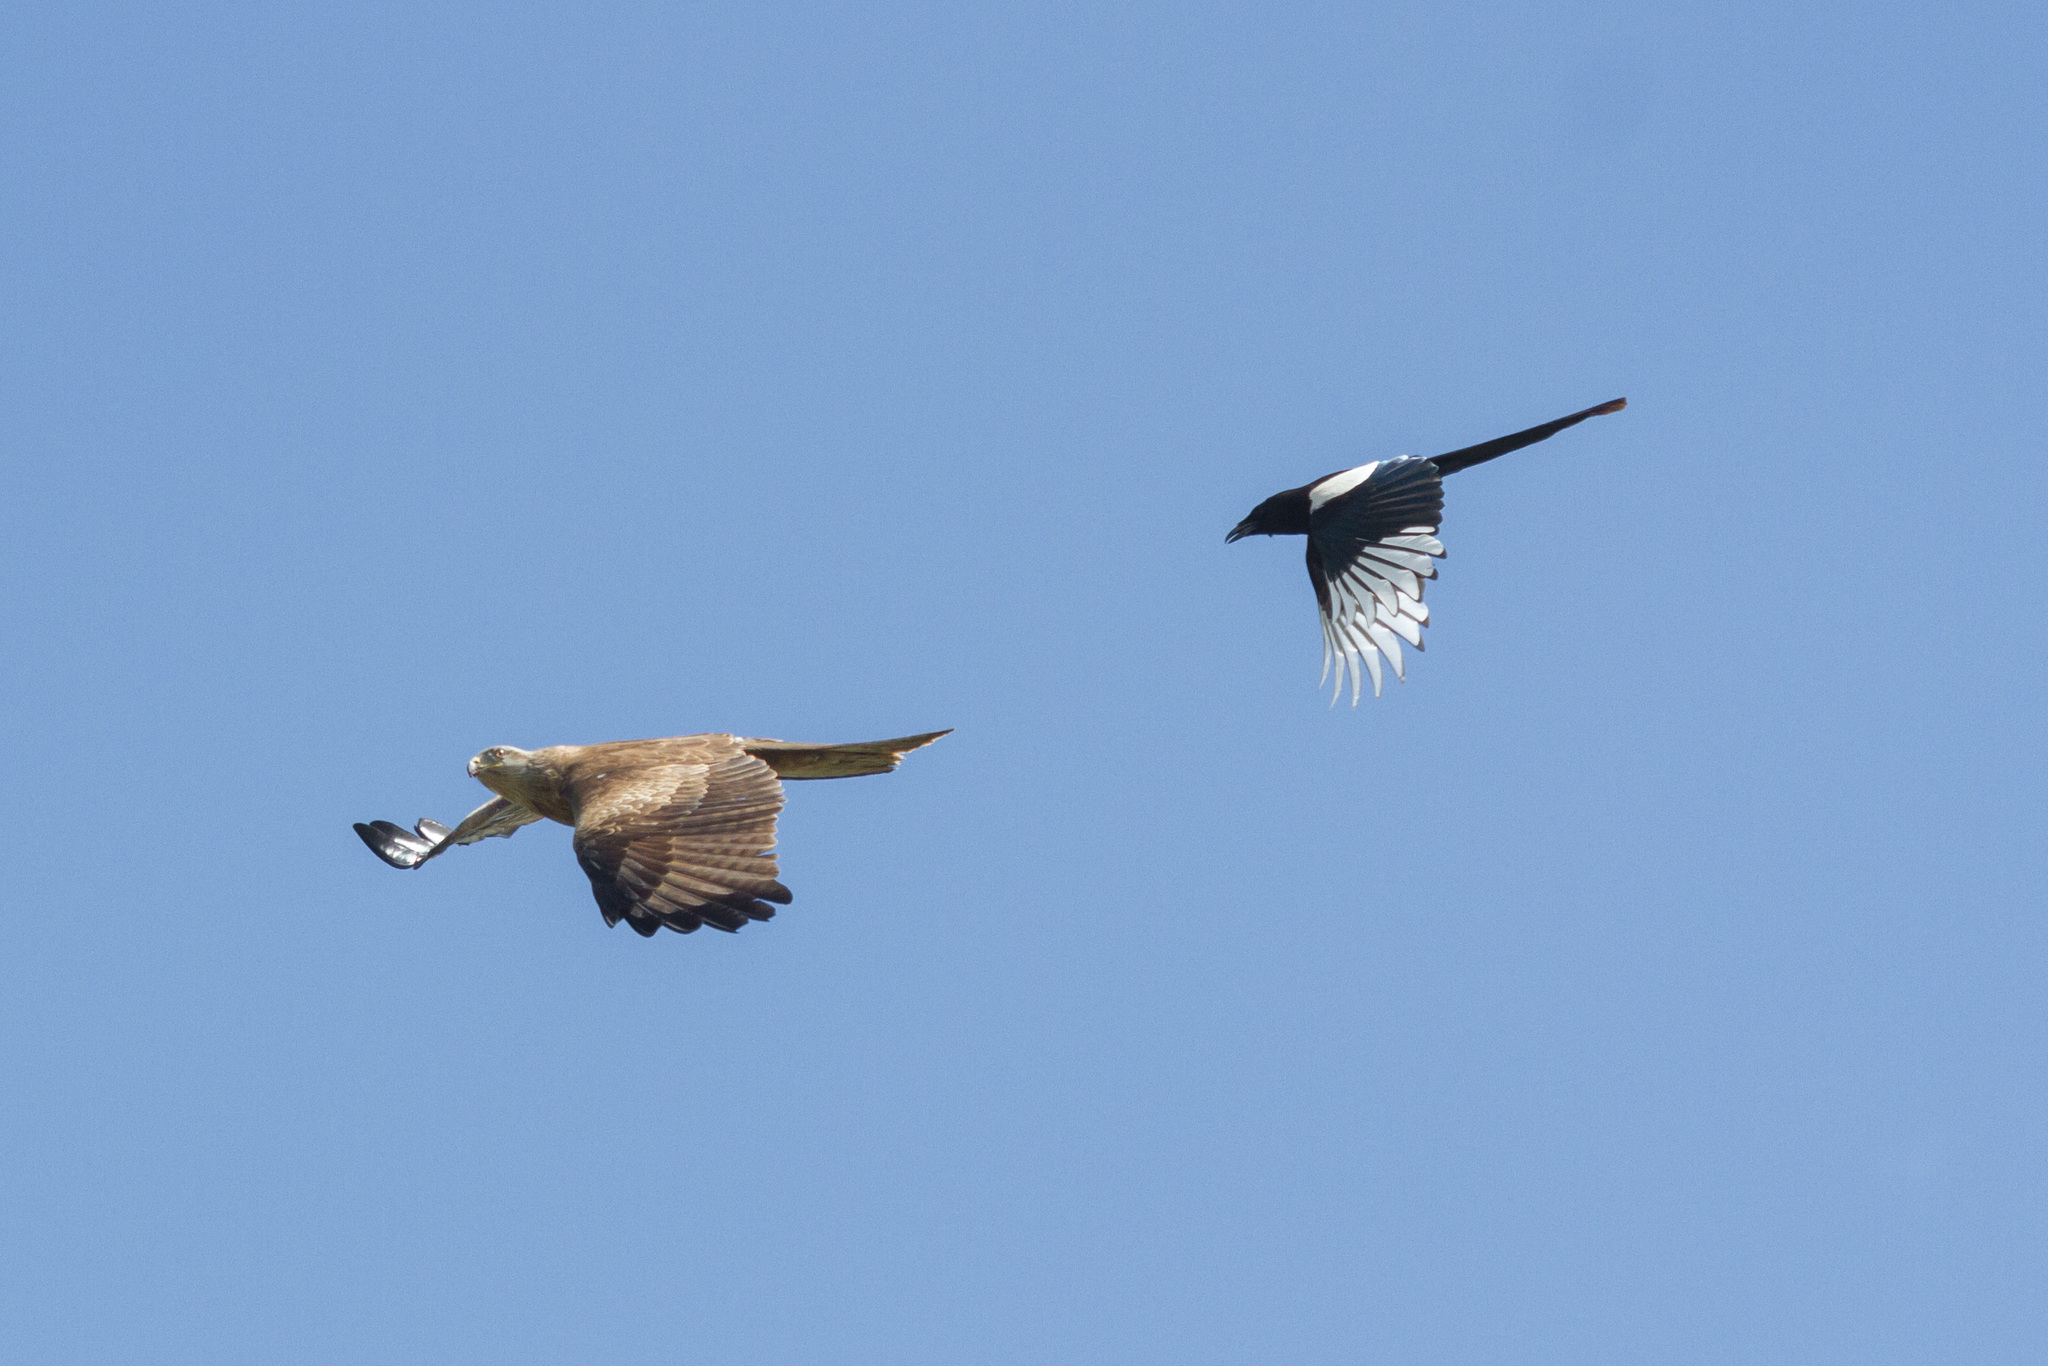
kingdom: Animalia
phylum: Chordata
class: Aves
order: Accipitriformes
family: Accipitridae
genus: Milvus
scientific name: Milvus migrans
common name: Black kite
